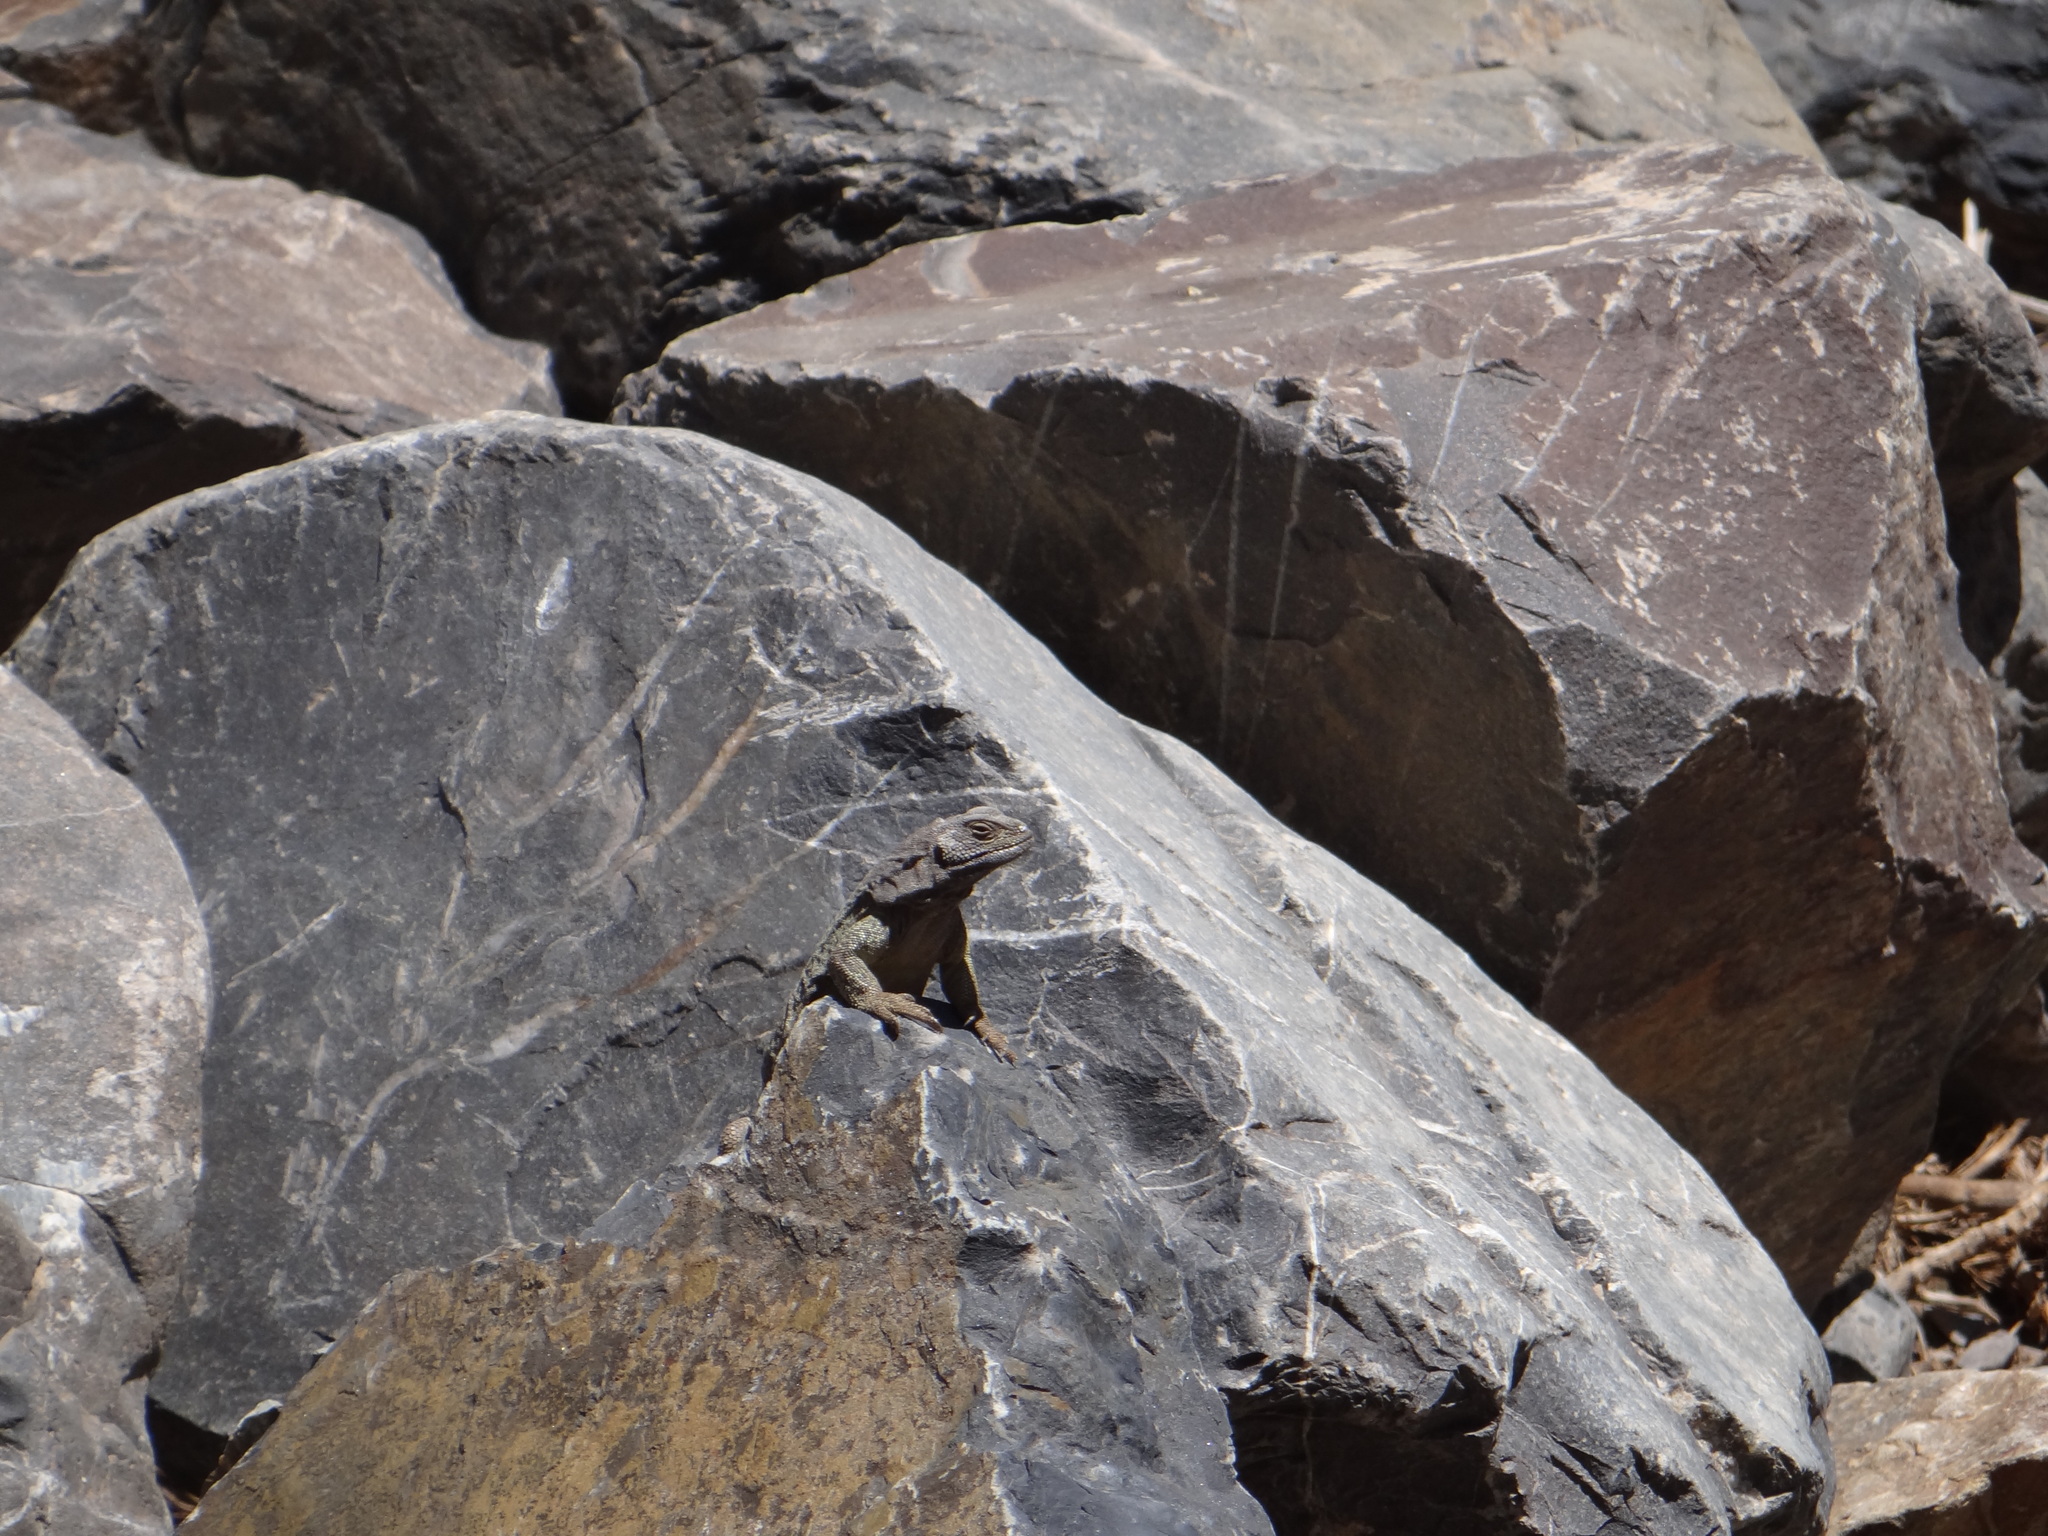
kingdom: Animalia
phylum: Chordata
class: Squamata
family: Liolaemidae
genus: Phymaturus
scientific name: Phymaturus aguanegra
